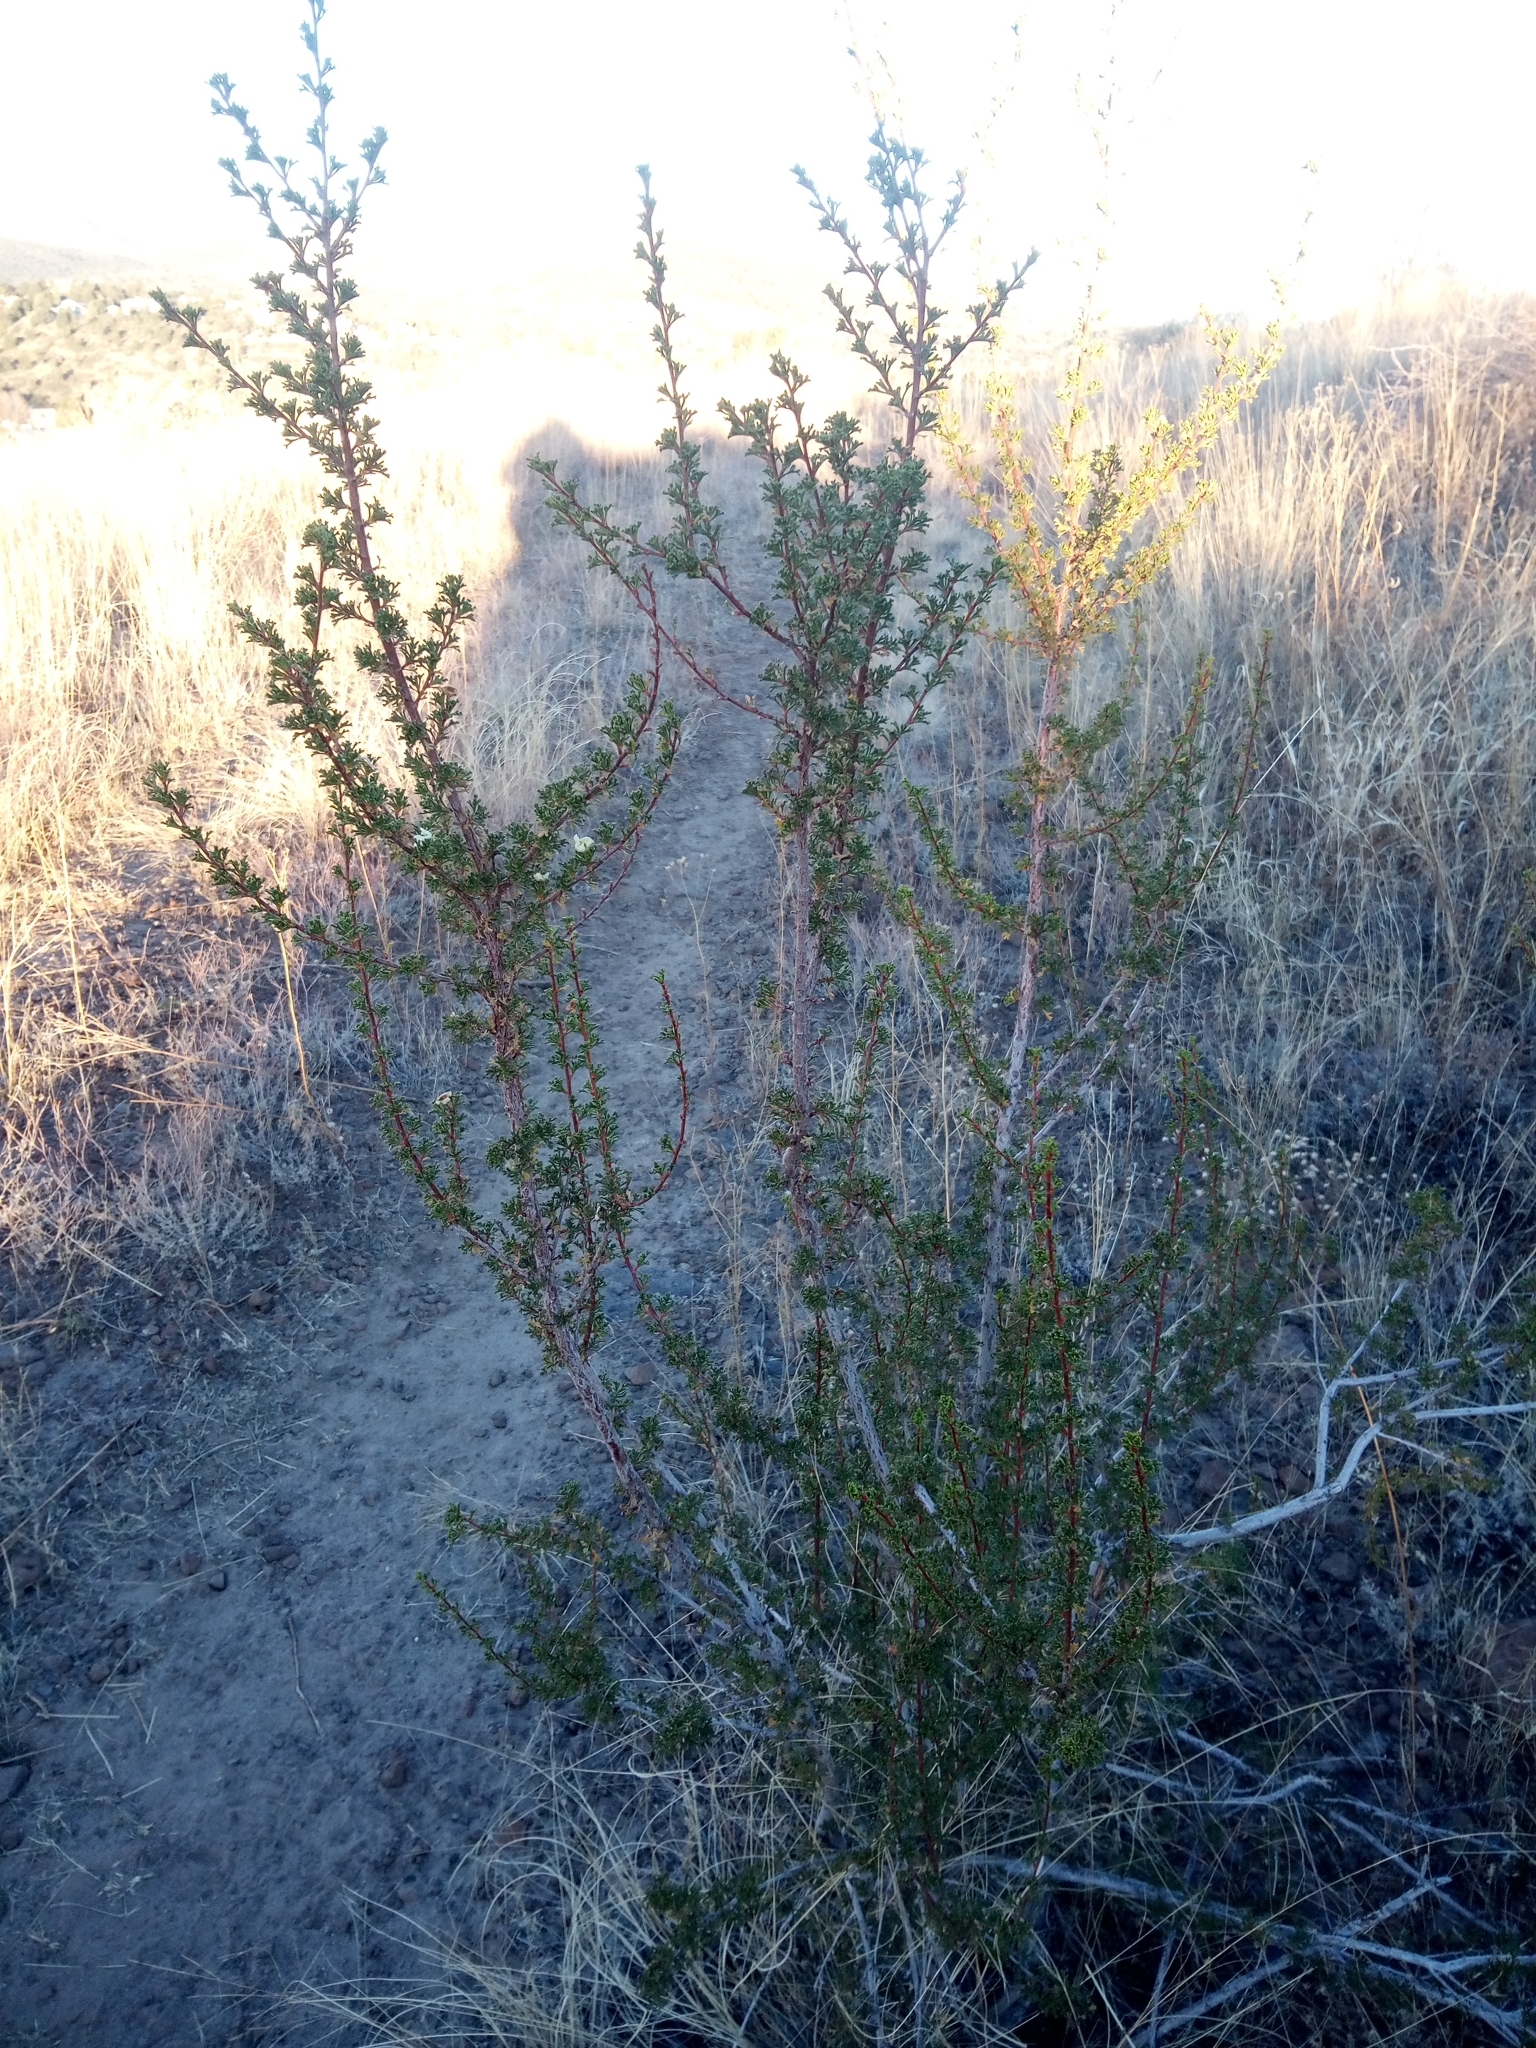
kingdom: Plantae
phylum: Tracheophyta
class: Magnoliopsida
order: Rosales
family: Rosaceae
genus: Purshia
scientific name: Purshia stansburiana
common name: Stansbury's cliffrose
